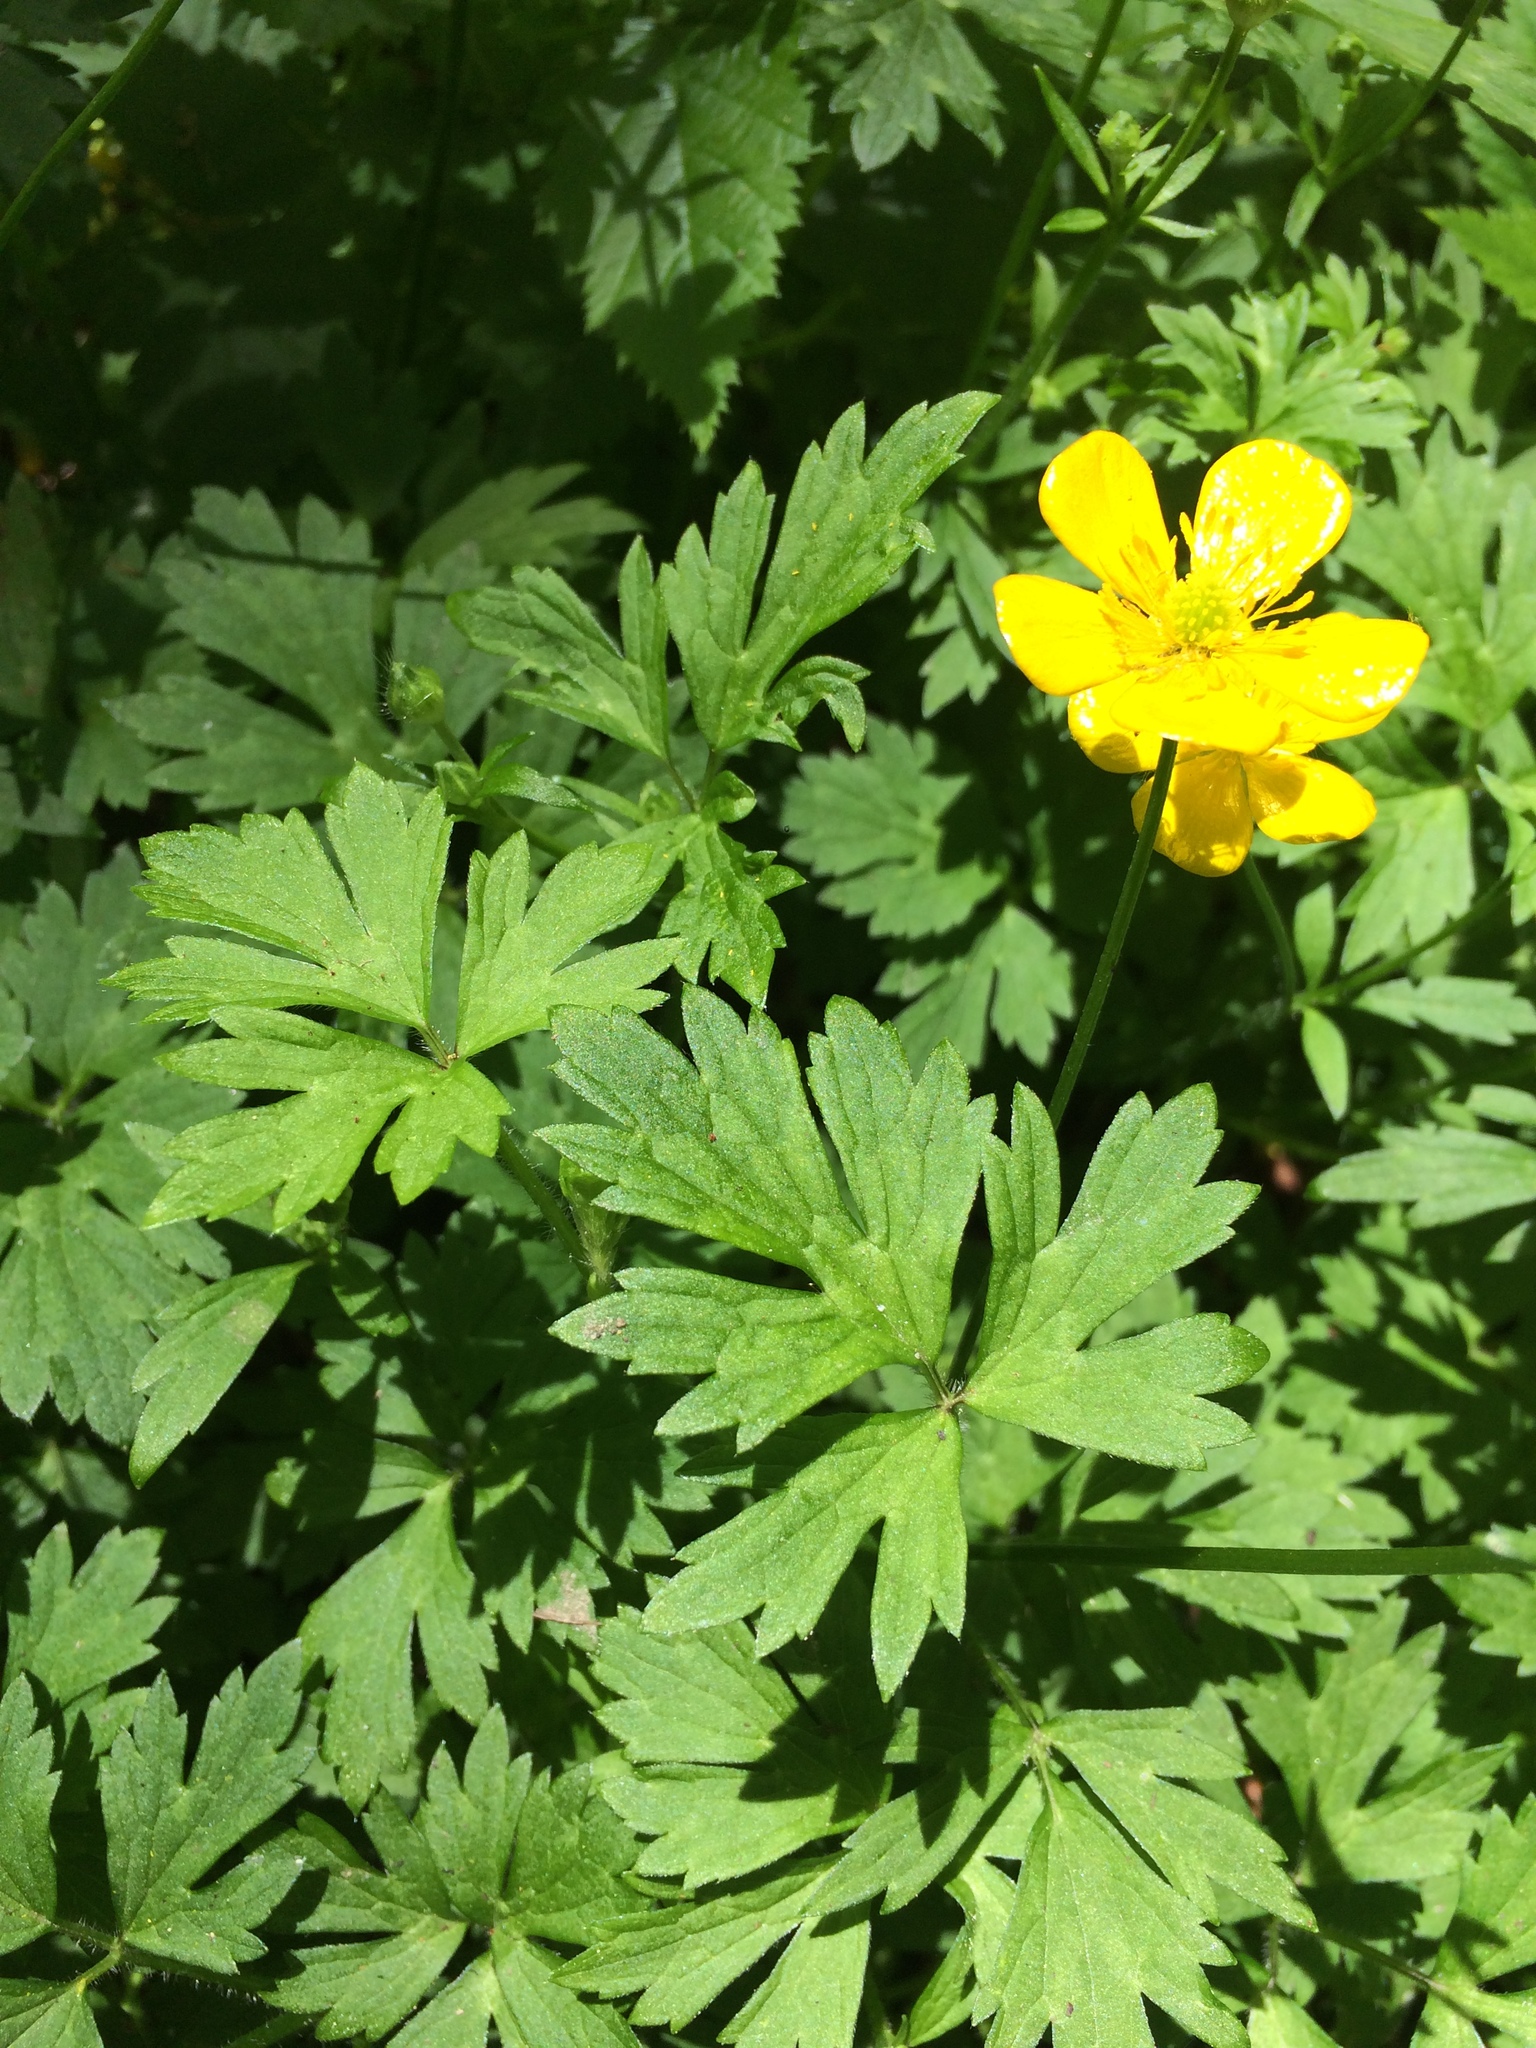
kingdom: Plantae
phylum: Tracheophyta
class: Magnoliopsida
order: Ranunculales
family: Ranunculaceae
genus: Ranunculus
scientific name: Ranunculus repens
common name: Creeping buttercup
